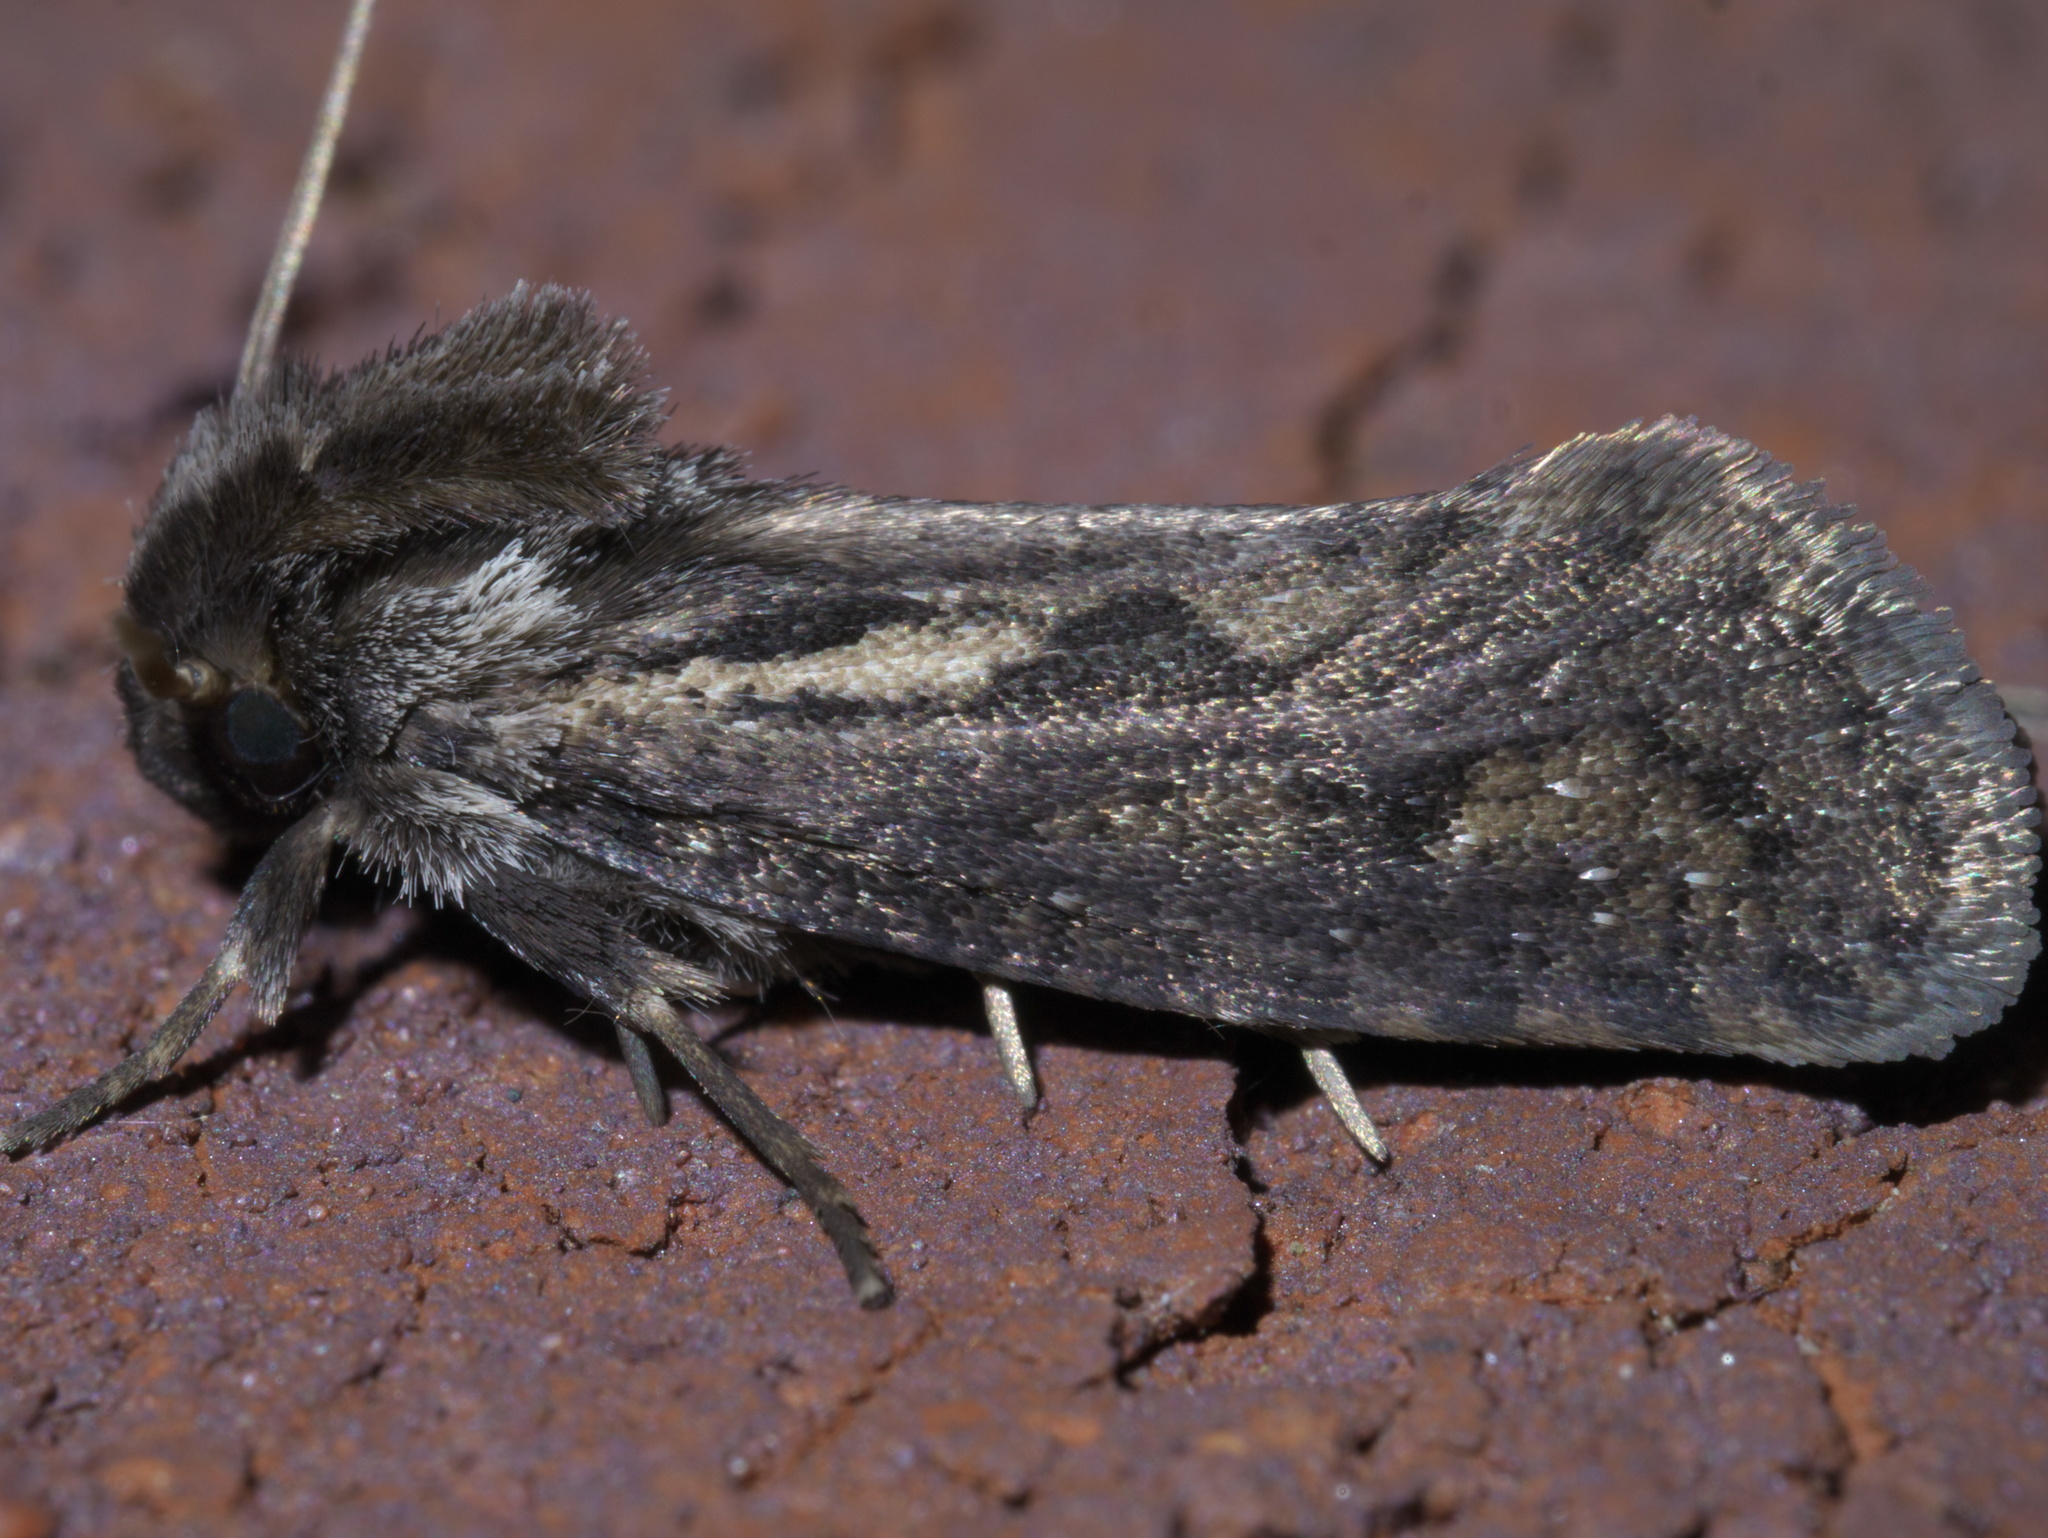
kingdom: Animalia
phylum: Arthropoda
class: Insecta
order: Lepidoptera
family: Tineidae
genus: Acrolophus
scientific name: Acrolophus popeanella
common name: Clemens' grass tubeworm moth
